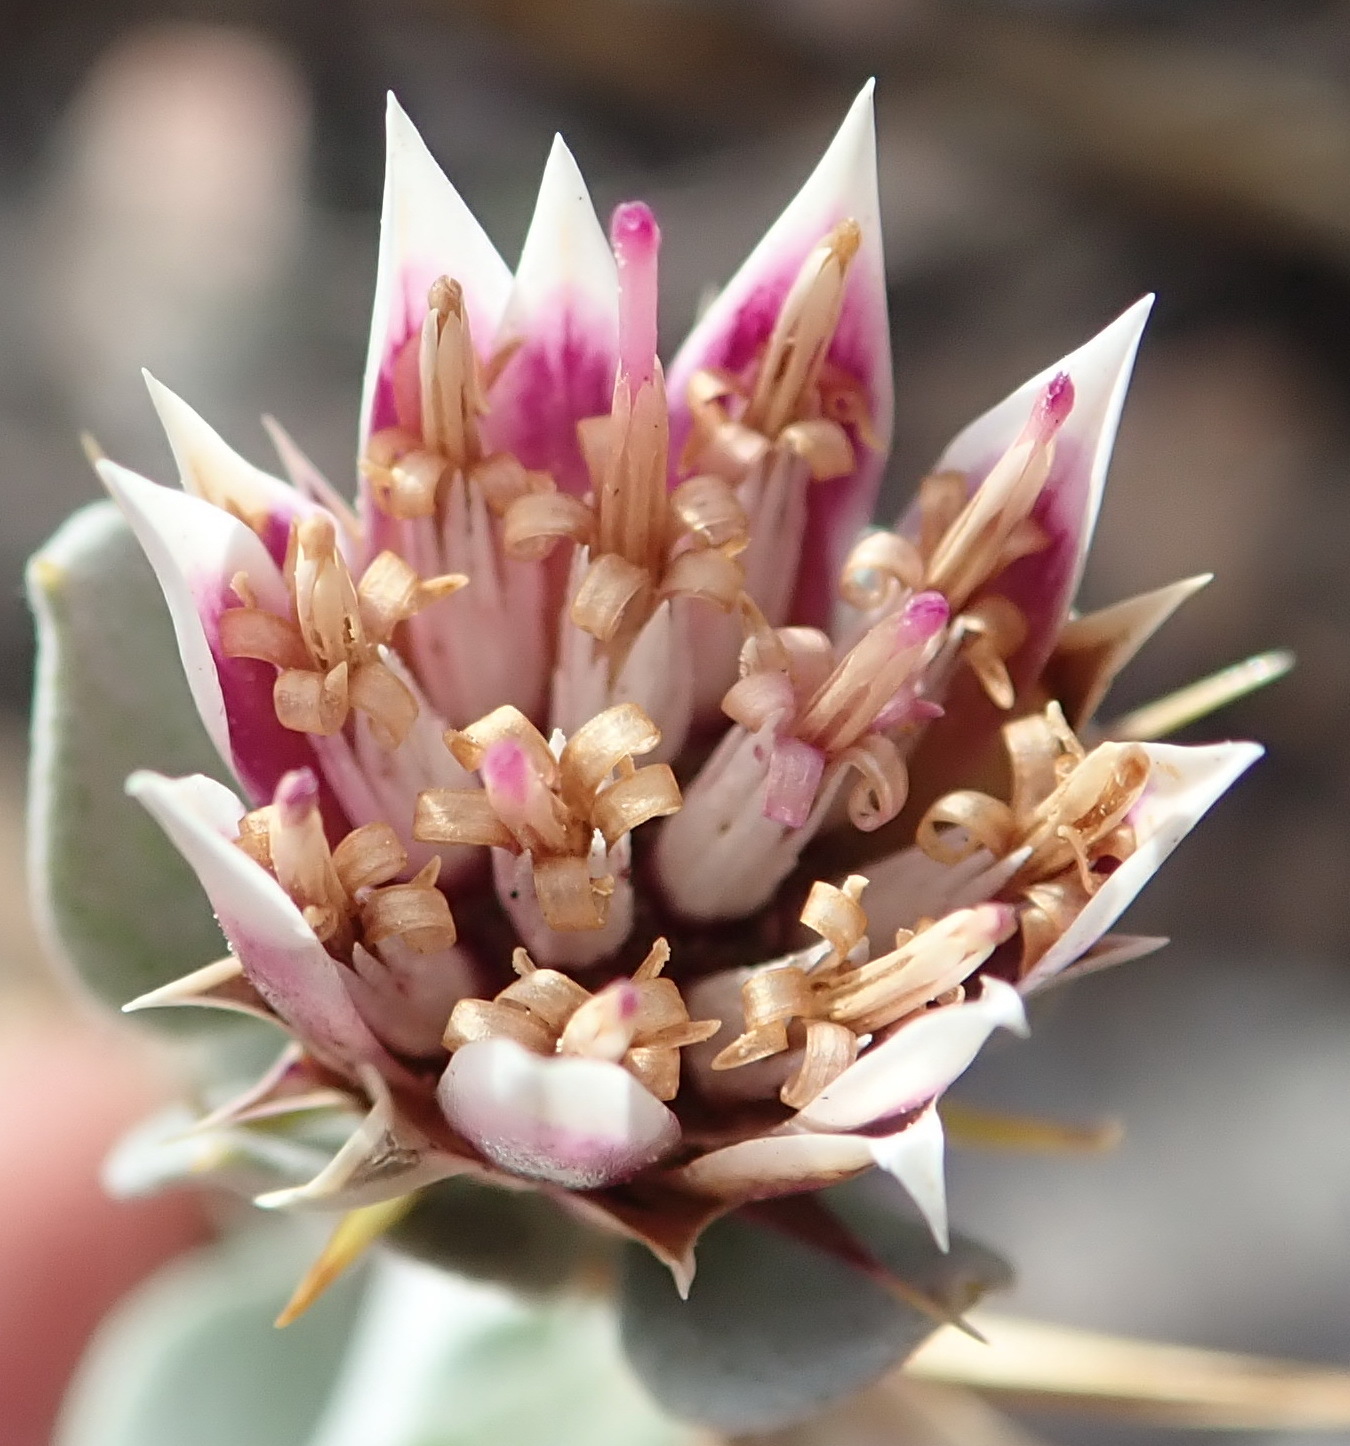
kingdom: Plantae
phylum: Tracheophyta
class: Magnoliopsida
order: Asterales
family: Asteraceae
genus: Macledium
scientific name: Macledium spinosum
